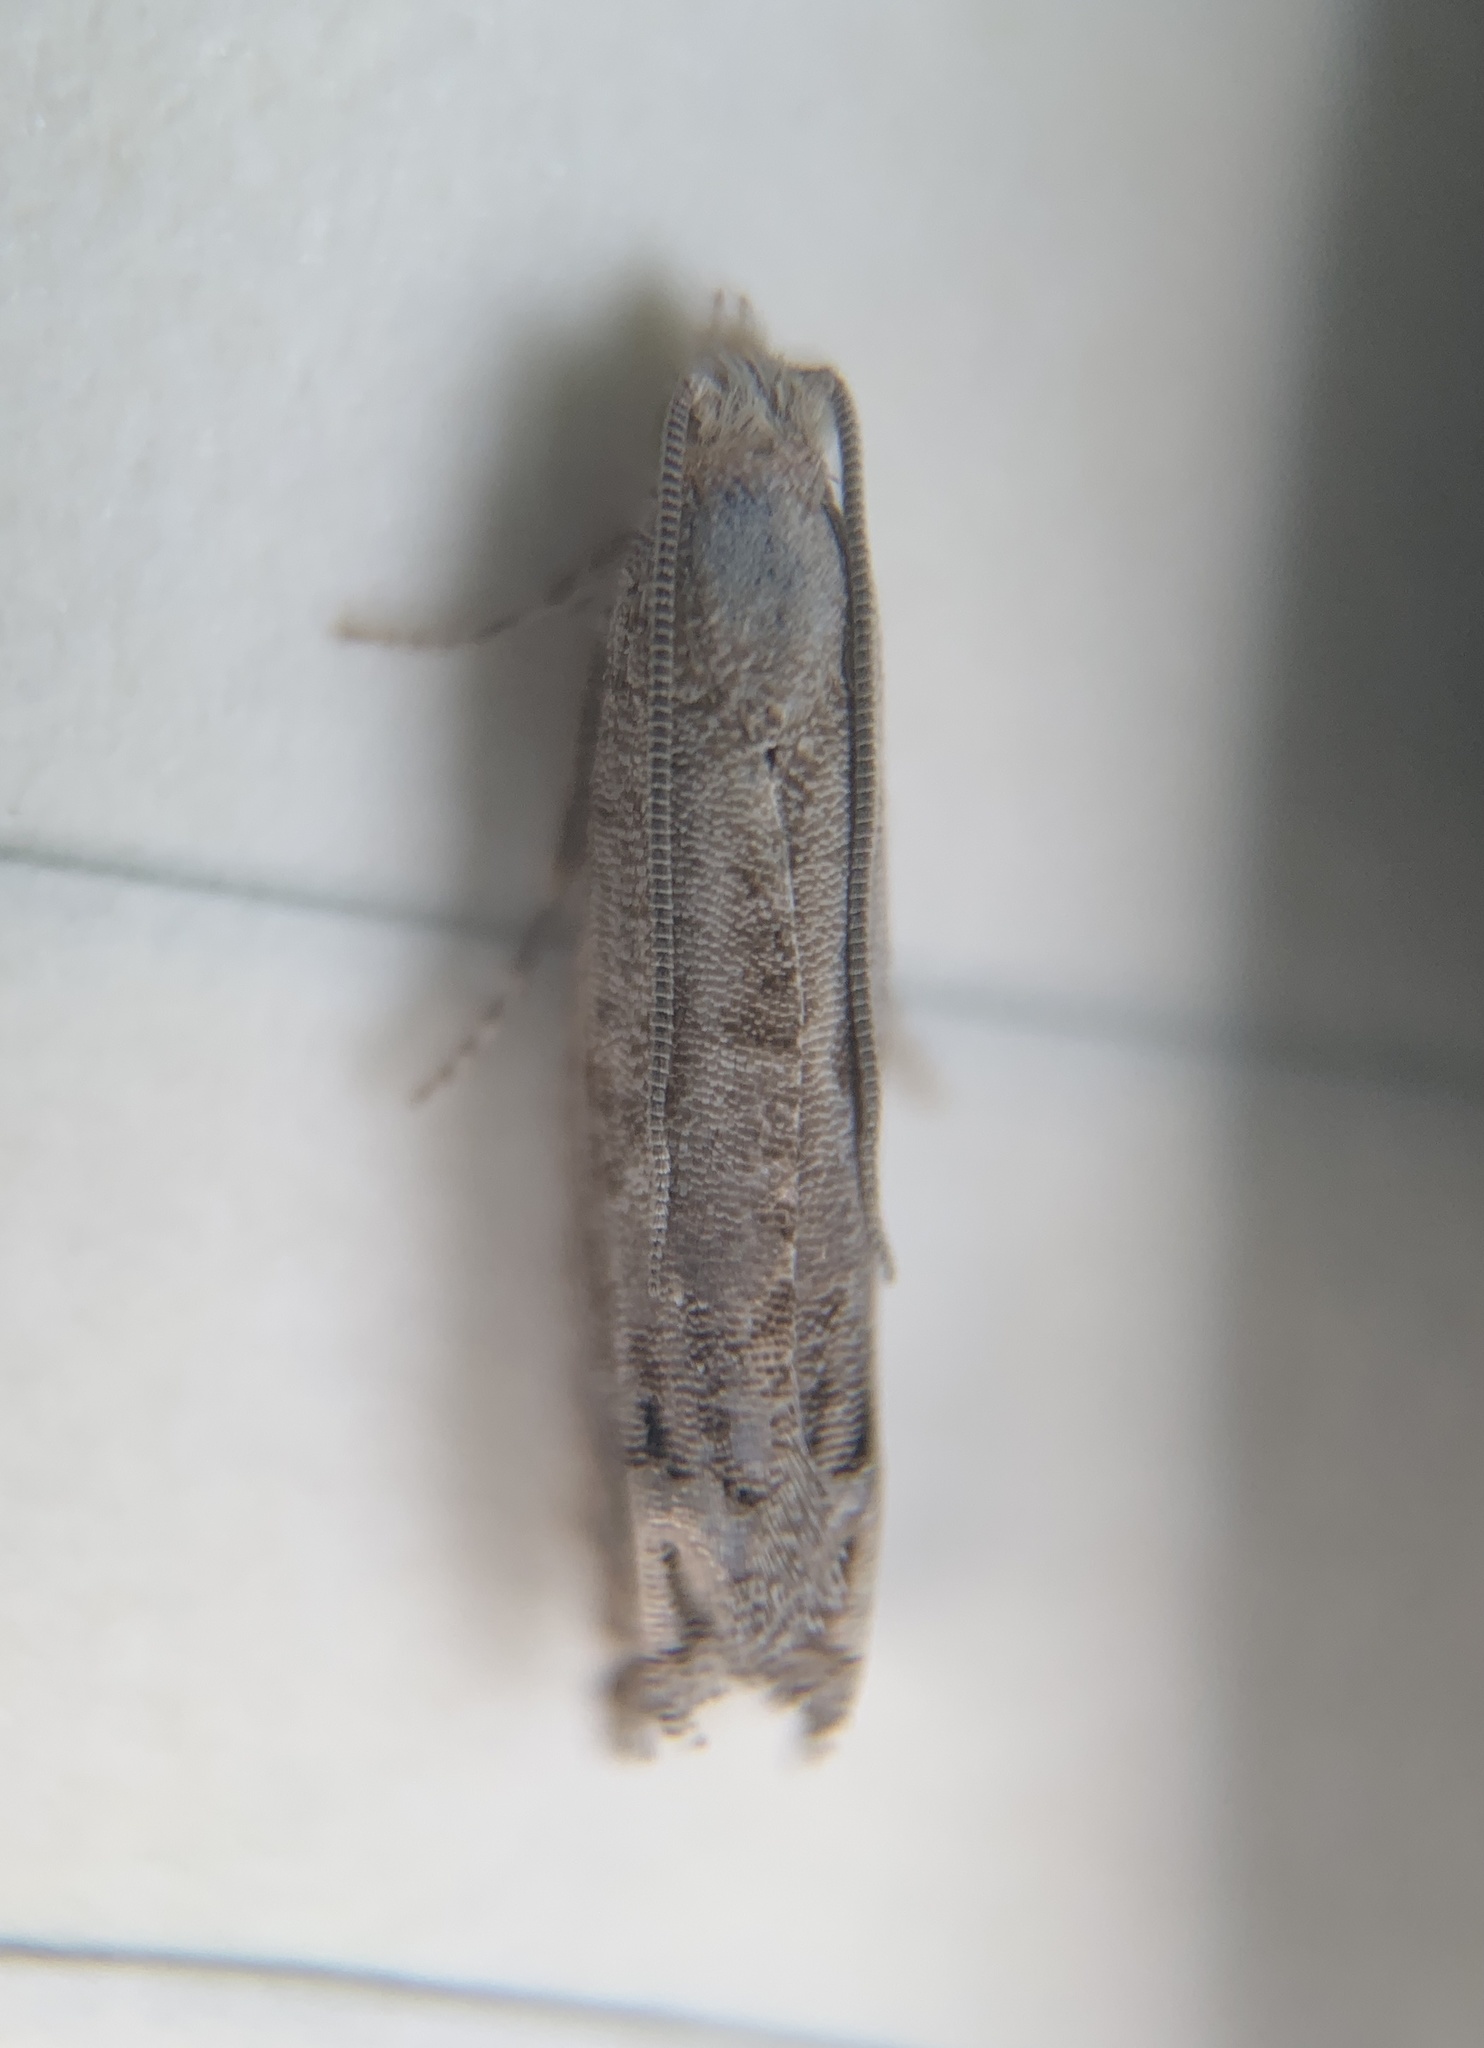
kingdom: Animalia
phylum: Arthropoda
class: Insecta
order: Lepidoptera
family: Tortricidae
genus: Epiblema
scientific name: Epiblema strenuana
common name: Ragweed borer moth
